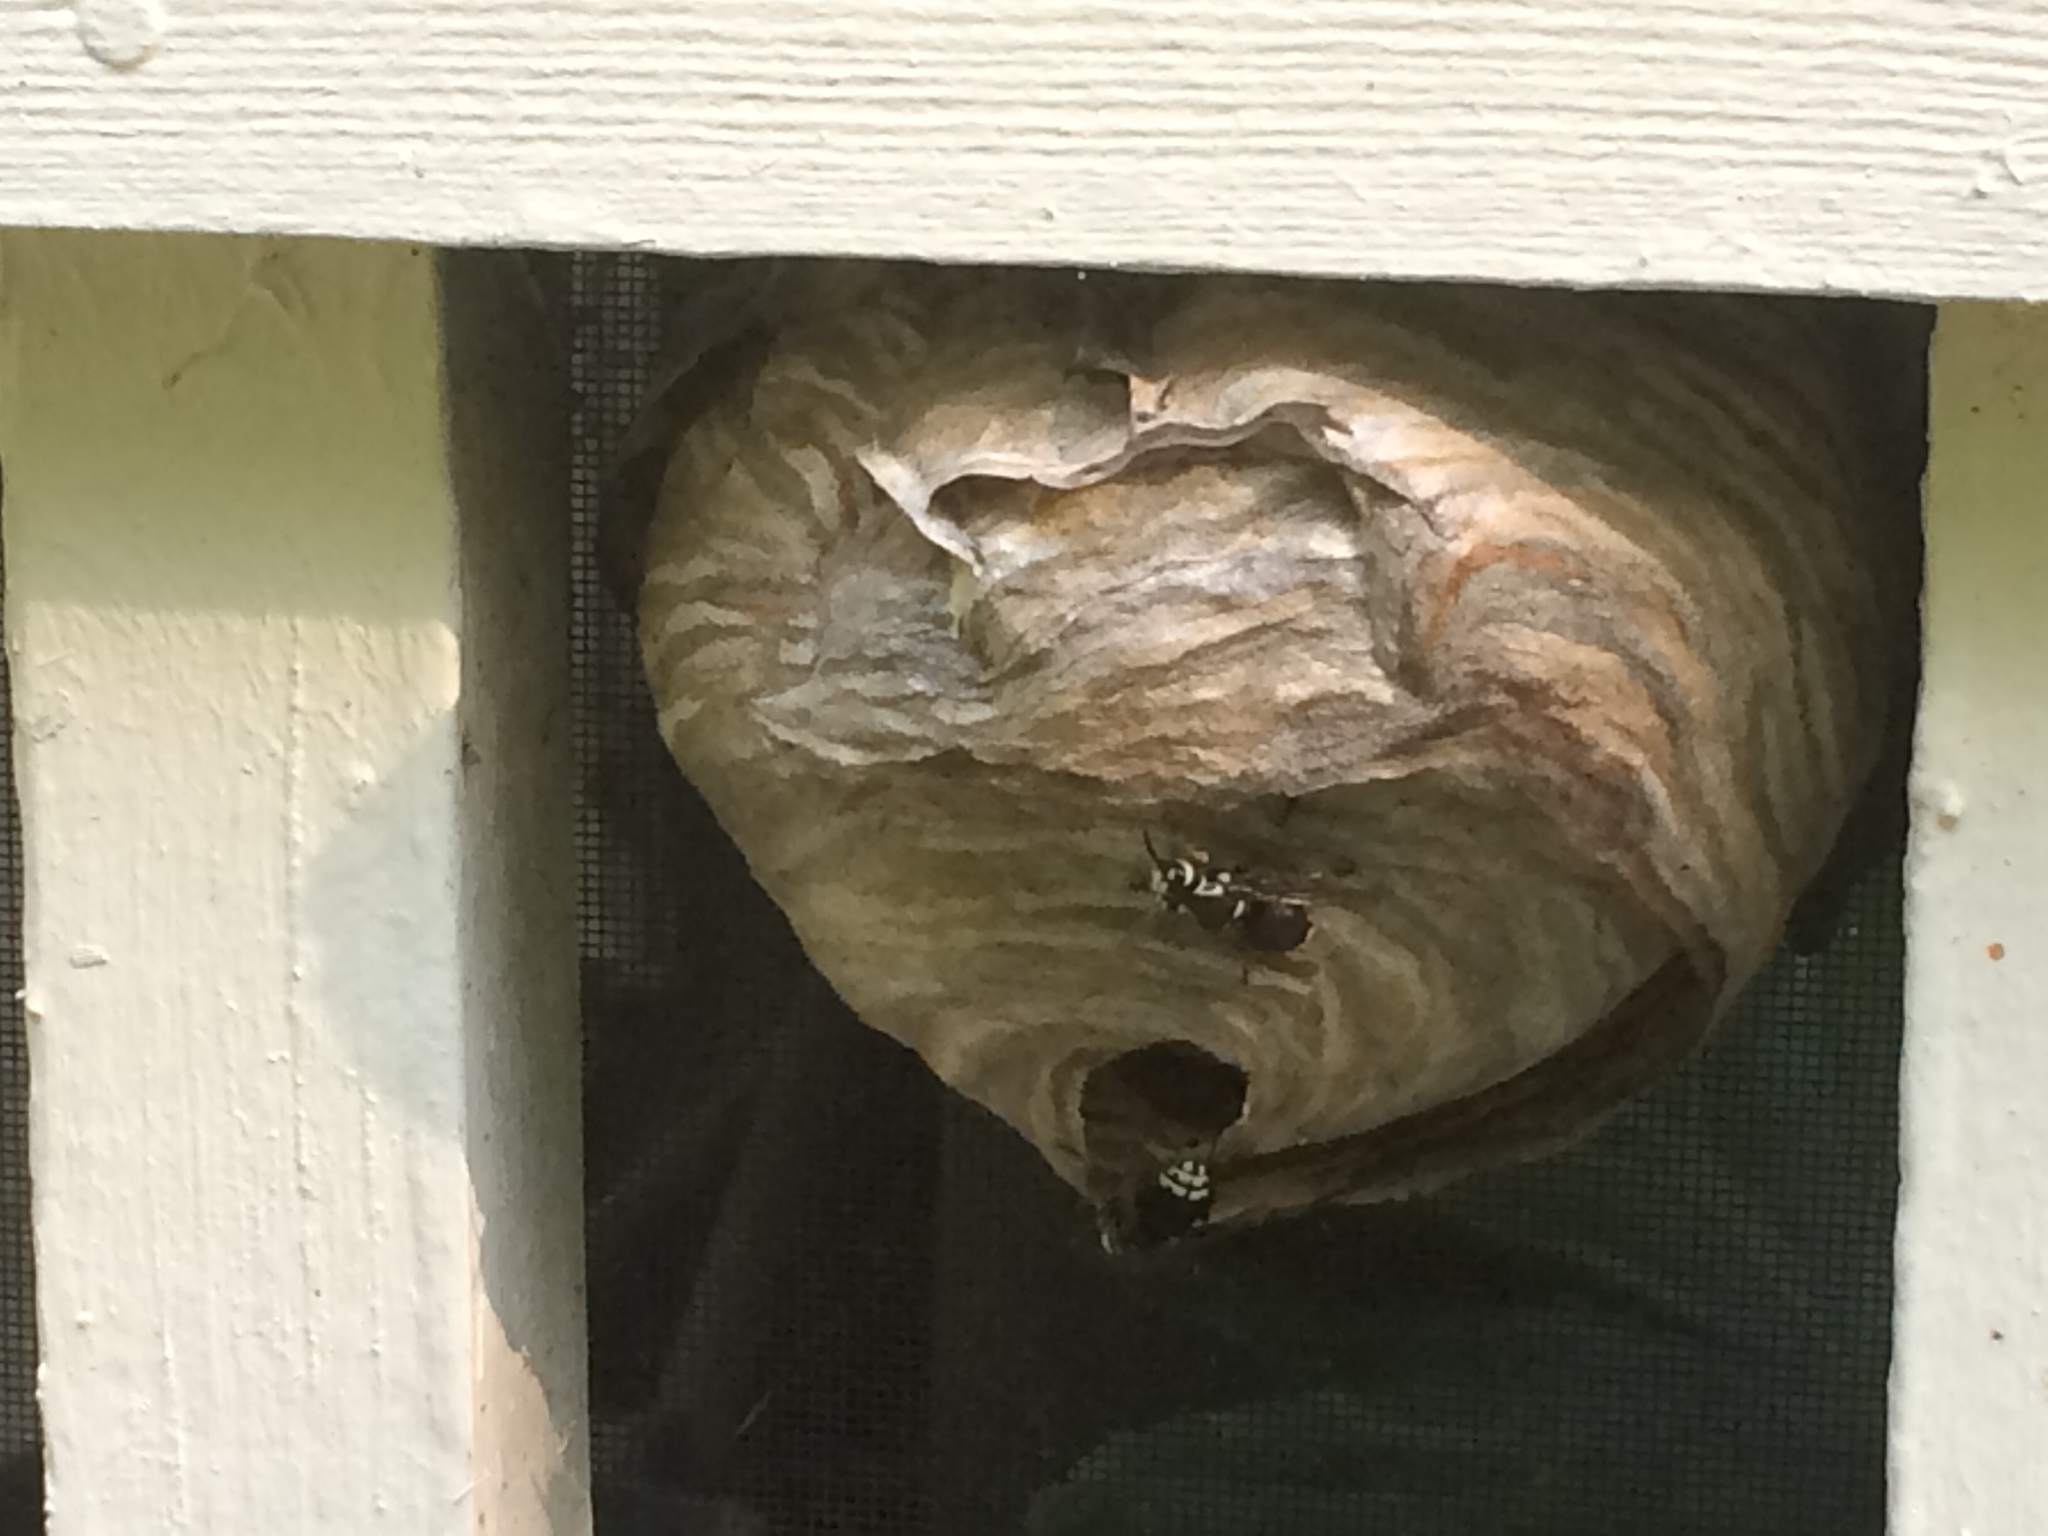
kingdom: Animalia
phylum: Arthropoda
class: Insecta
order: Hymenoptera
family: Vespidae
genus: Dolichovespula
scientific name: Dolichovespula maculata
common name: Bald-faced hornet
